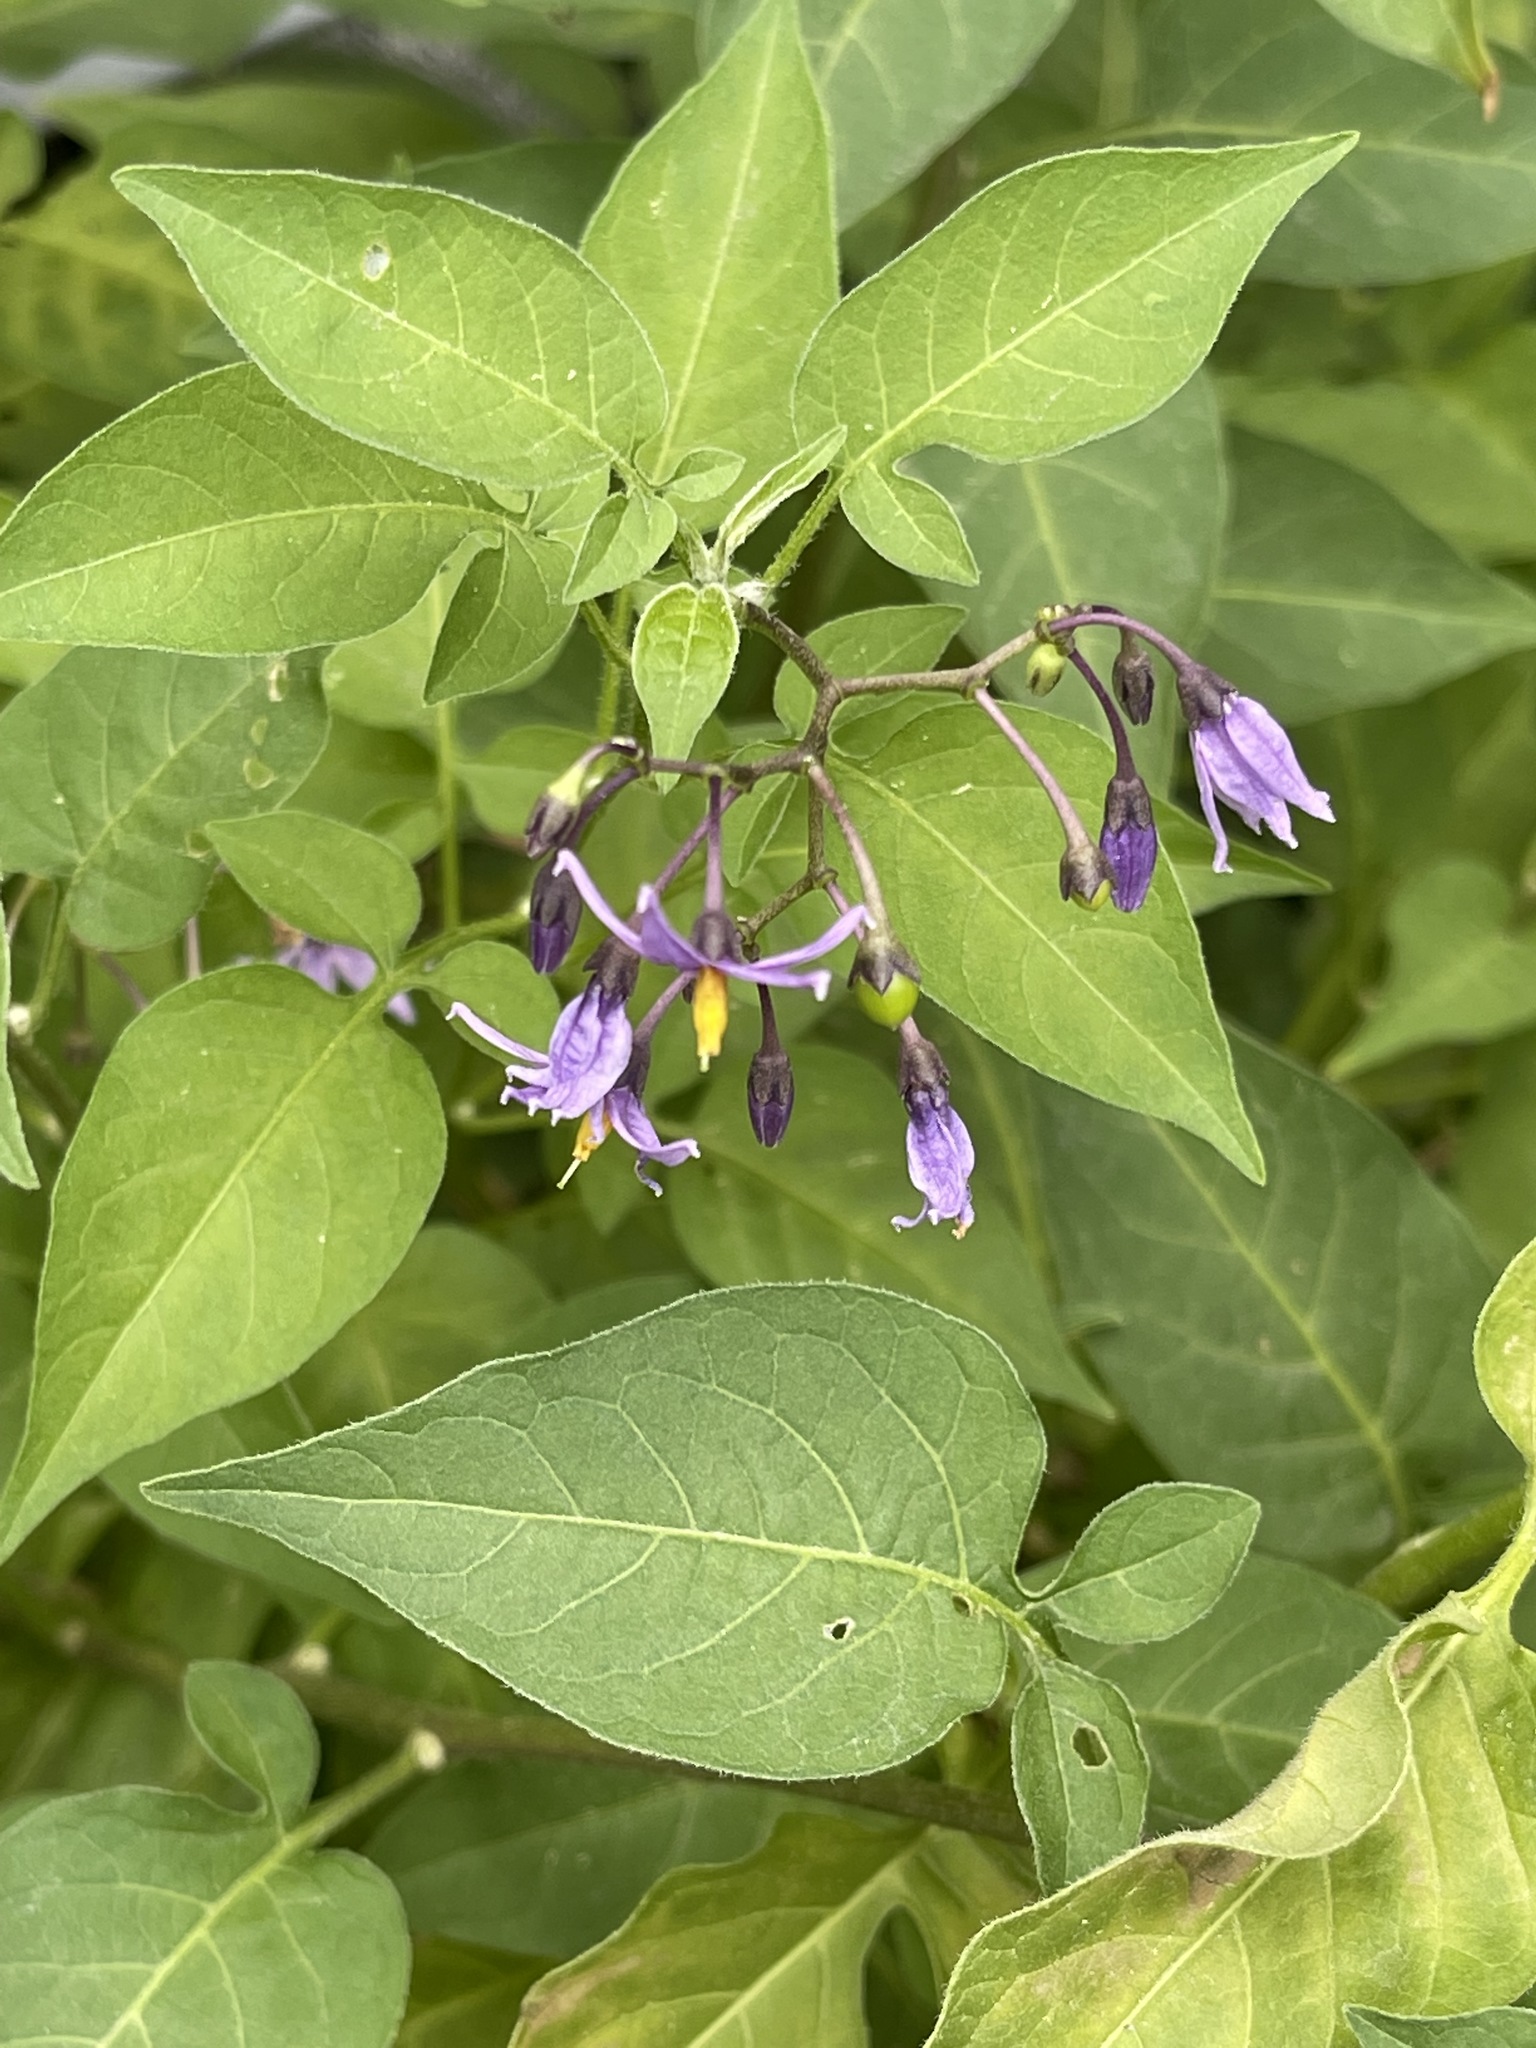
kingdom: Plantae
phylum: Tracheophyta
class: Magnoliopsida
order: Solanales
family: Solanaceae
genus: Solanum
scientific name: Solanum dulcamara
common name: Climbing nightshade
